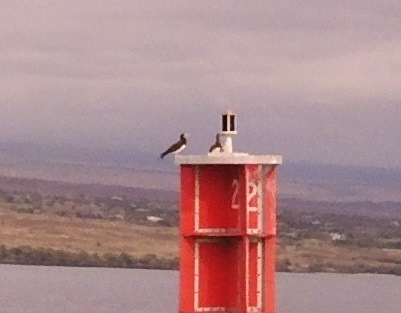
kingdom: Animalia
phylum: Chordata
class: Aves
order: Suliformes
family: Sulidae
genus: Sula
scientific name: Sula leucogaster
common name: Brown booby
